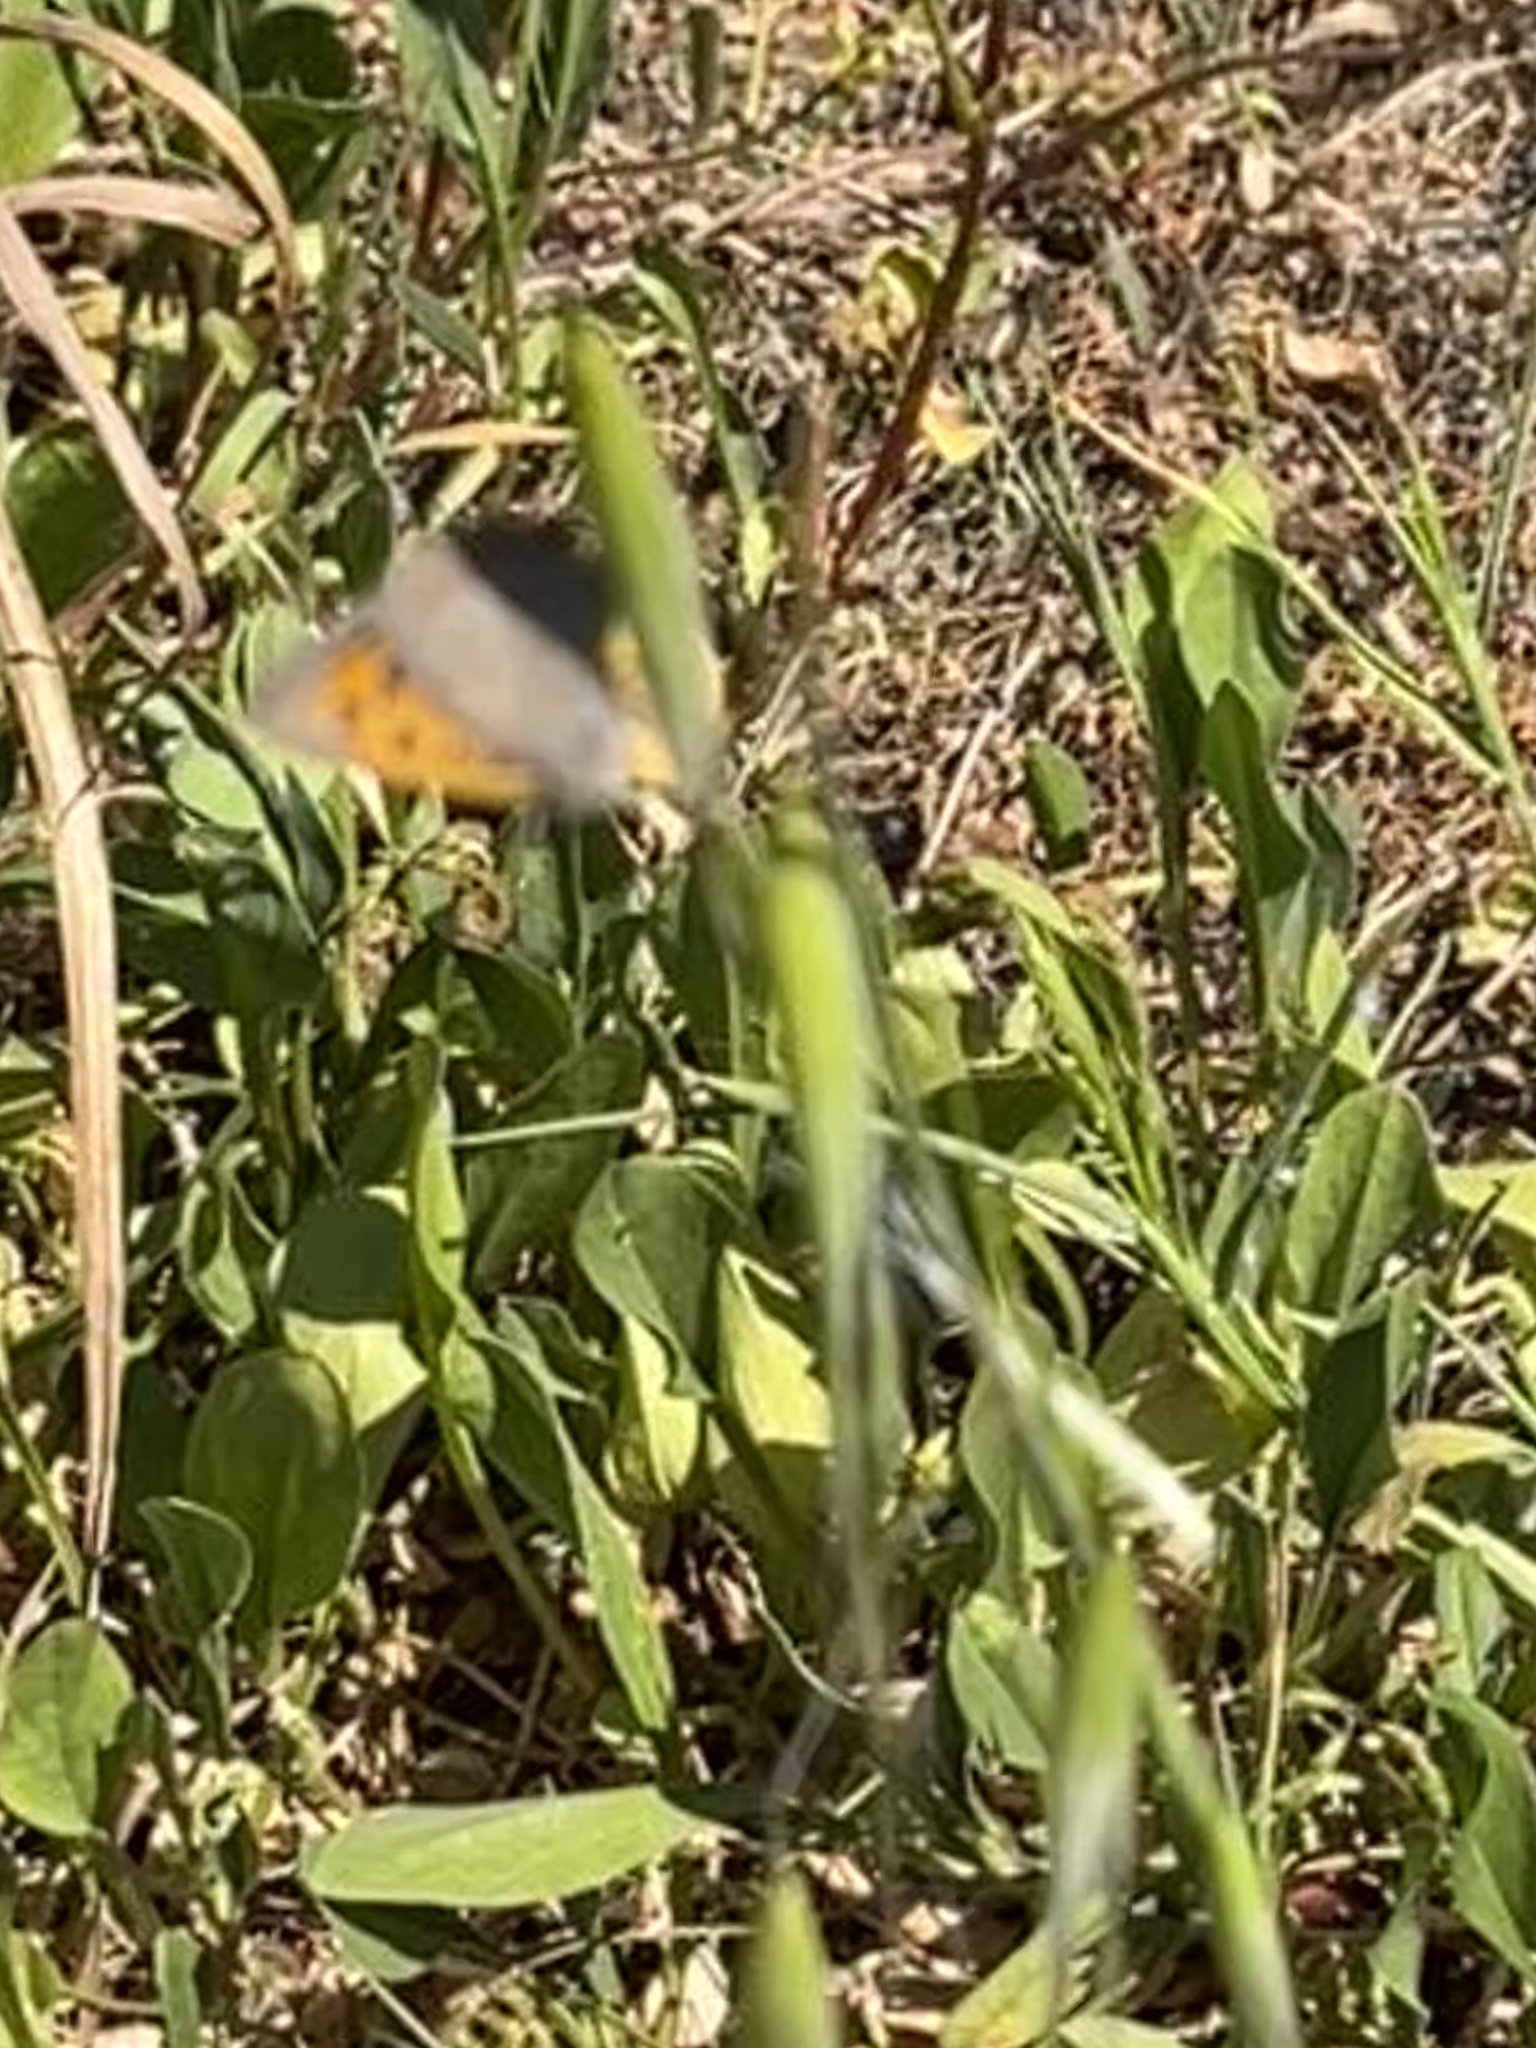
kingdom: Animalia
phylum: Arthropoda
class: Insecta
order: Lepidoptera
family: Lycaenidae
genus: Lycaena
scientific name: Lycaena phlaeas
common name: Small copper
